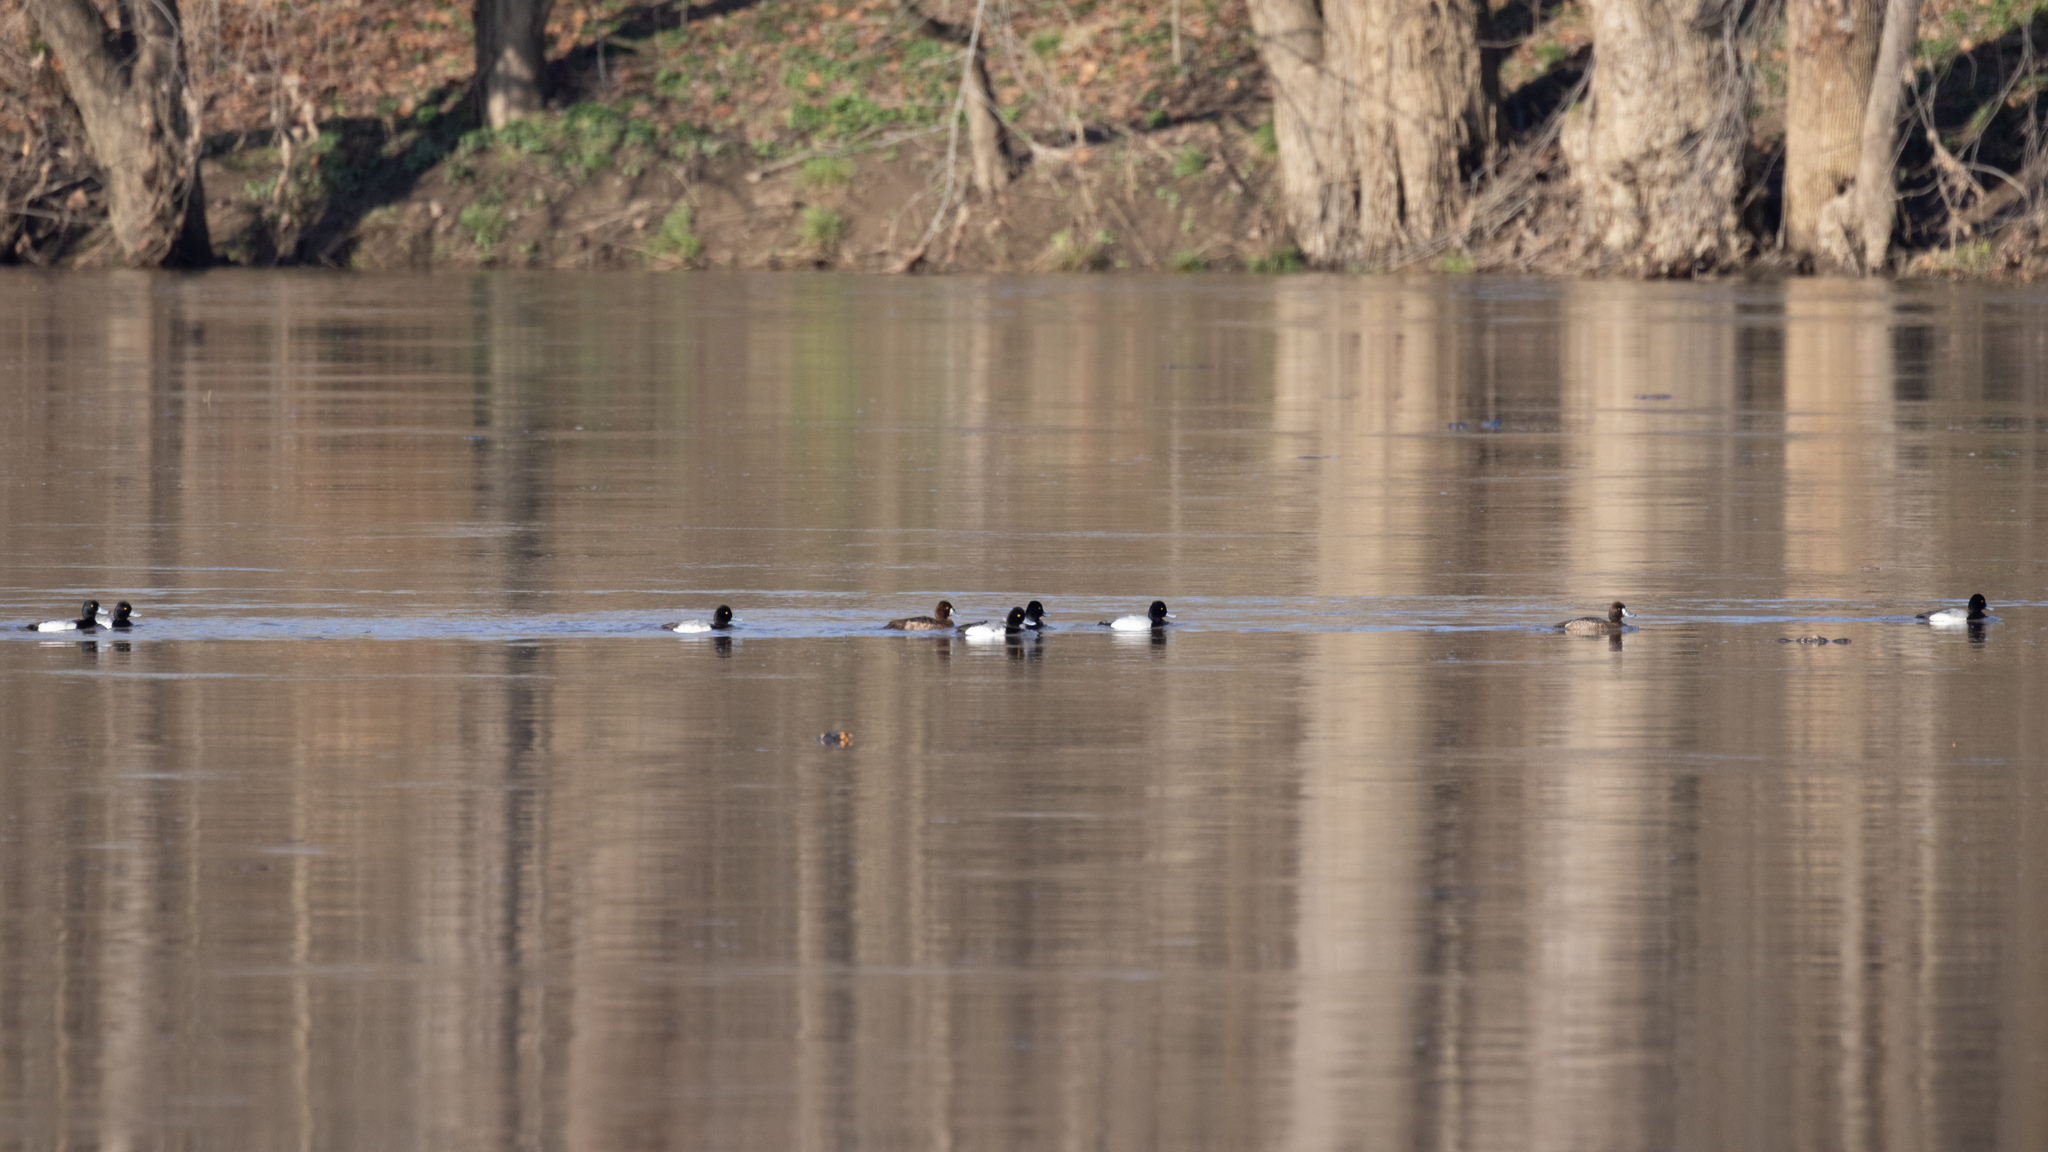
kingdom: Animalia
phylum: Chordata
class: Aves
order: Anseriformes
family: Anatidae
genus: Aythya
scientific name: Aythya affinis
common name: Lesser scaup
